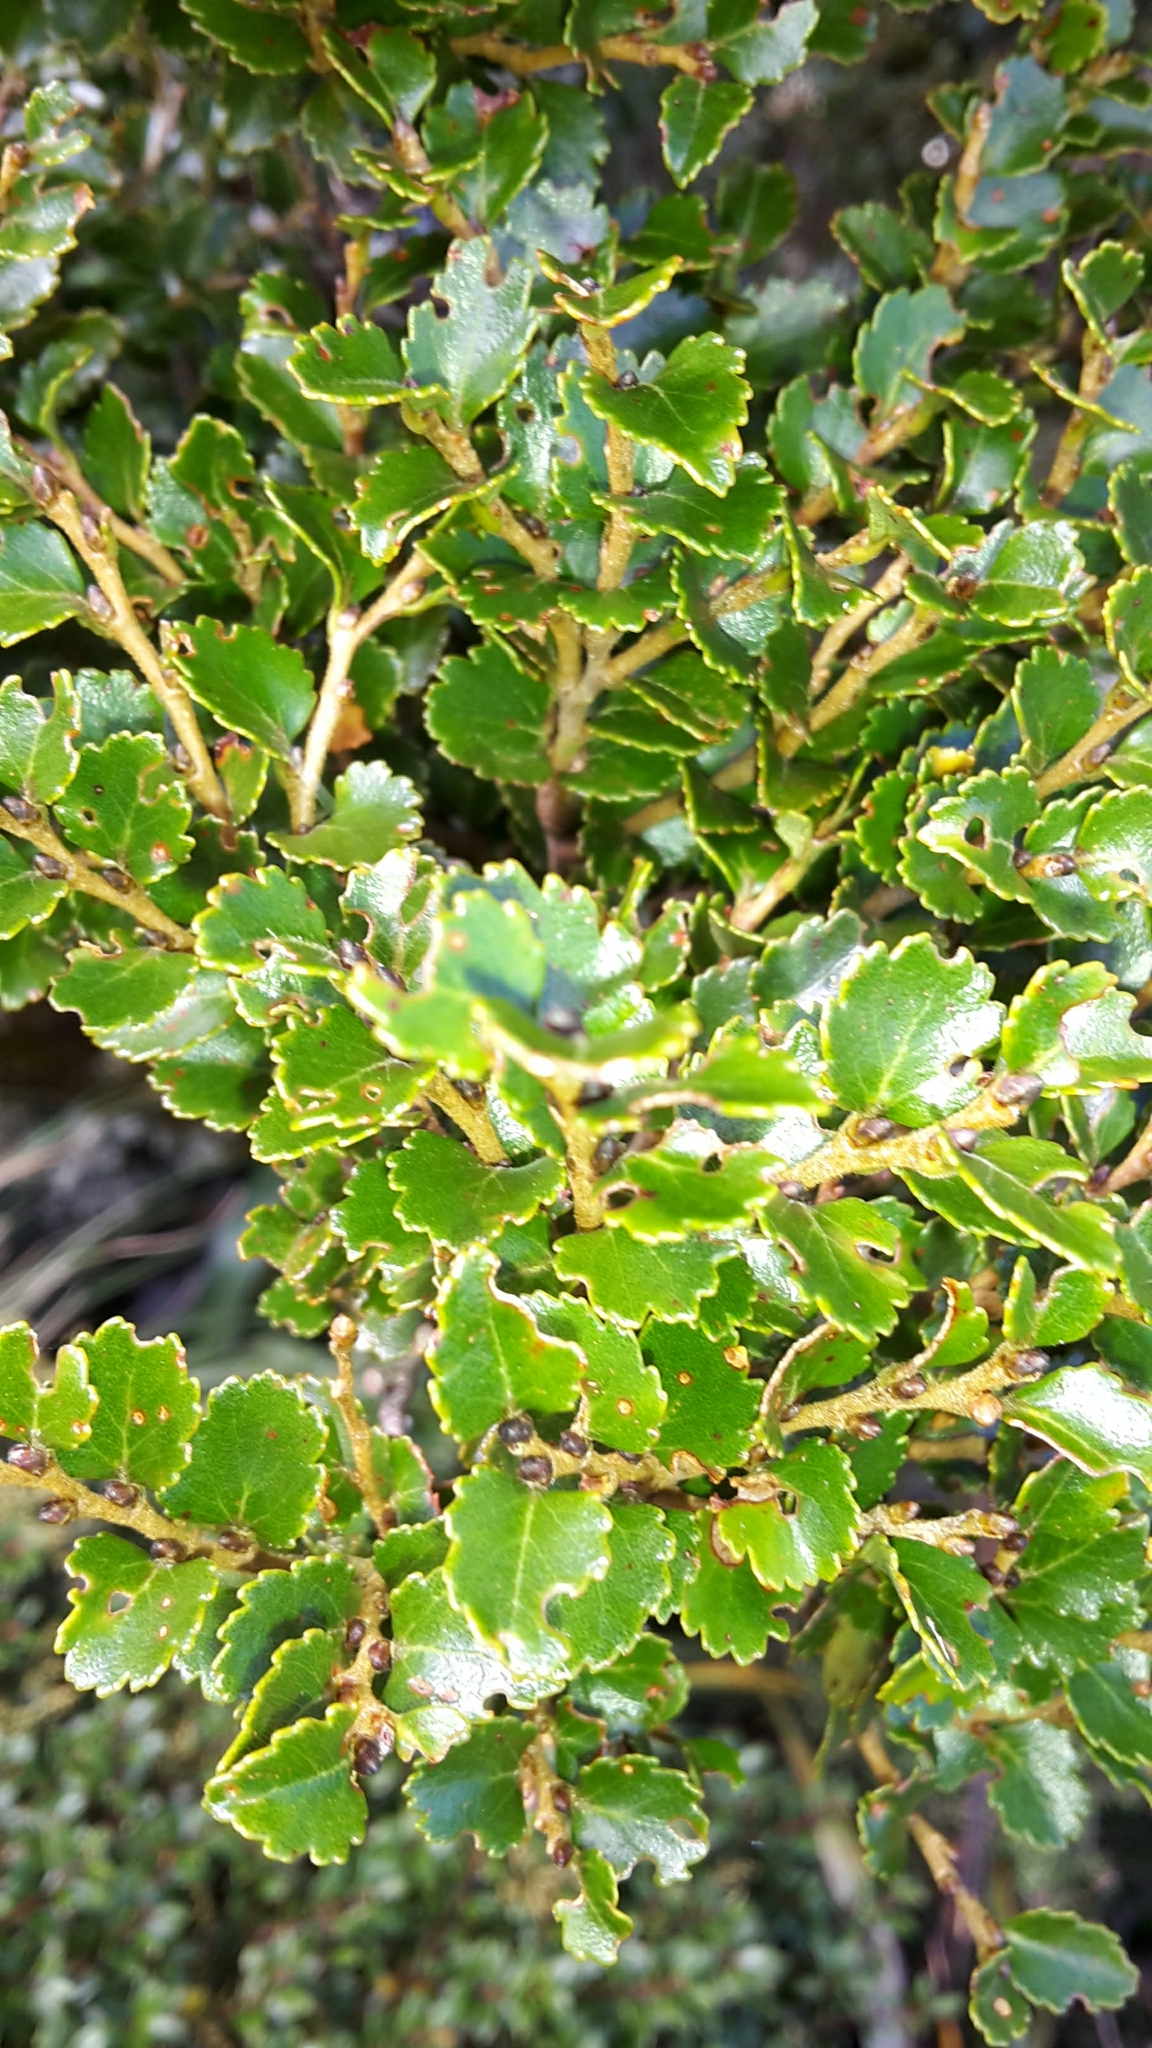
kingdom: Plantae
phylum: Tracheophyta
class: Magnoliopsida
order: Fagales
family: Nothofagaceae
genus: Nothofagus
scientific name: Nothofagus menziesii
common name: Silver beech
